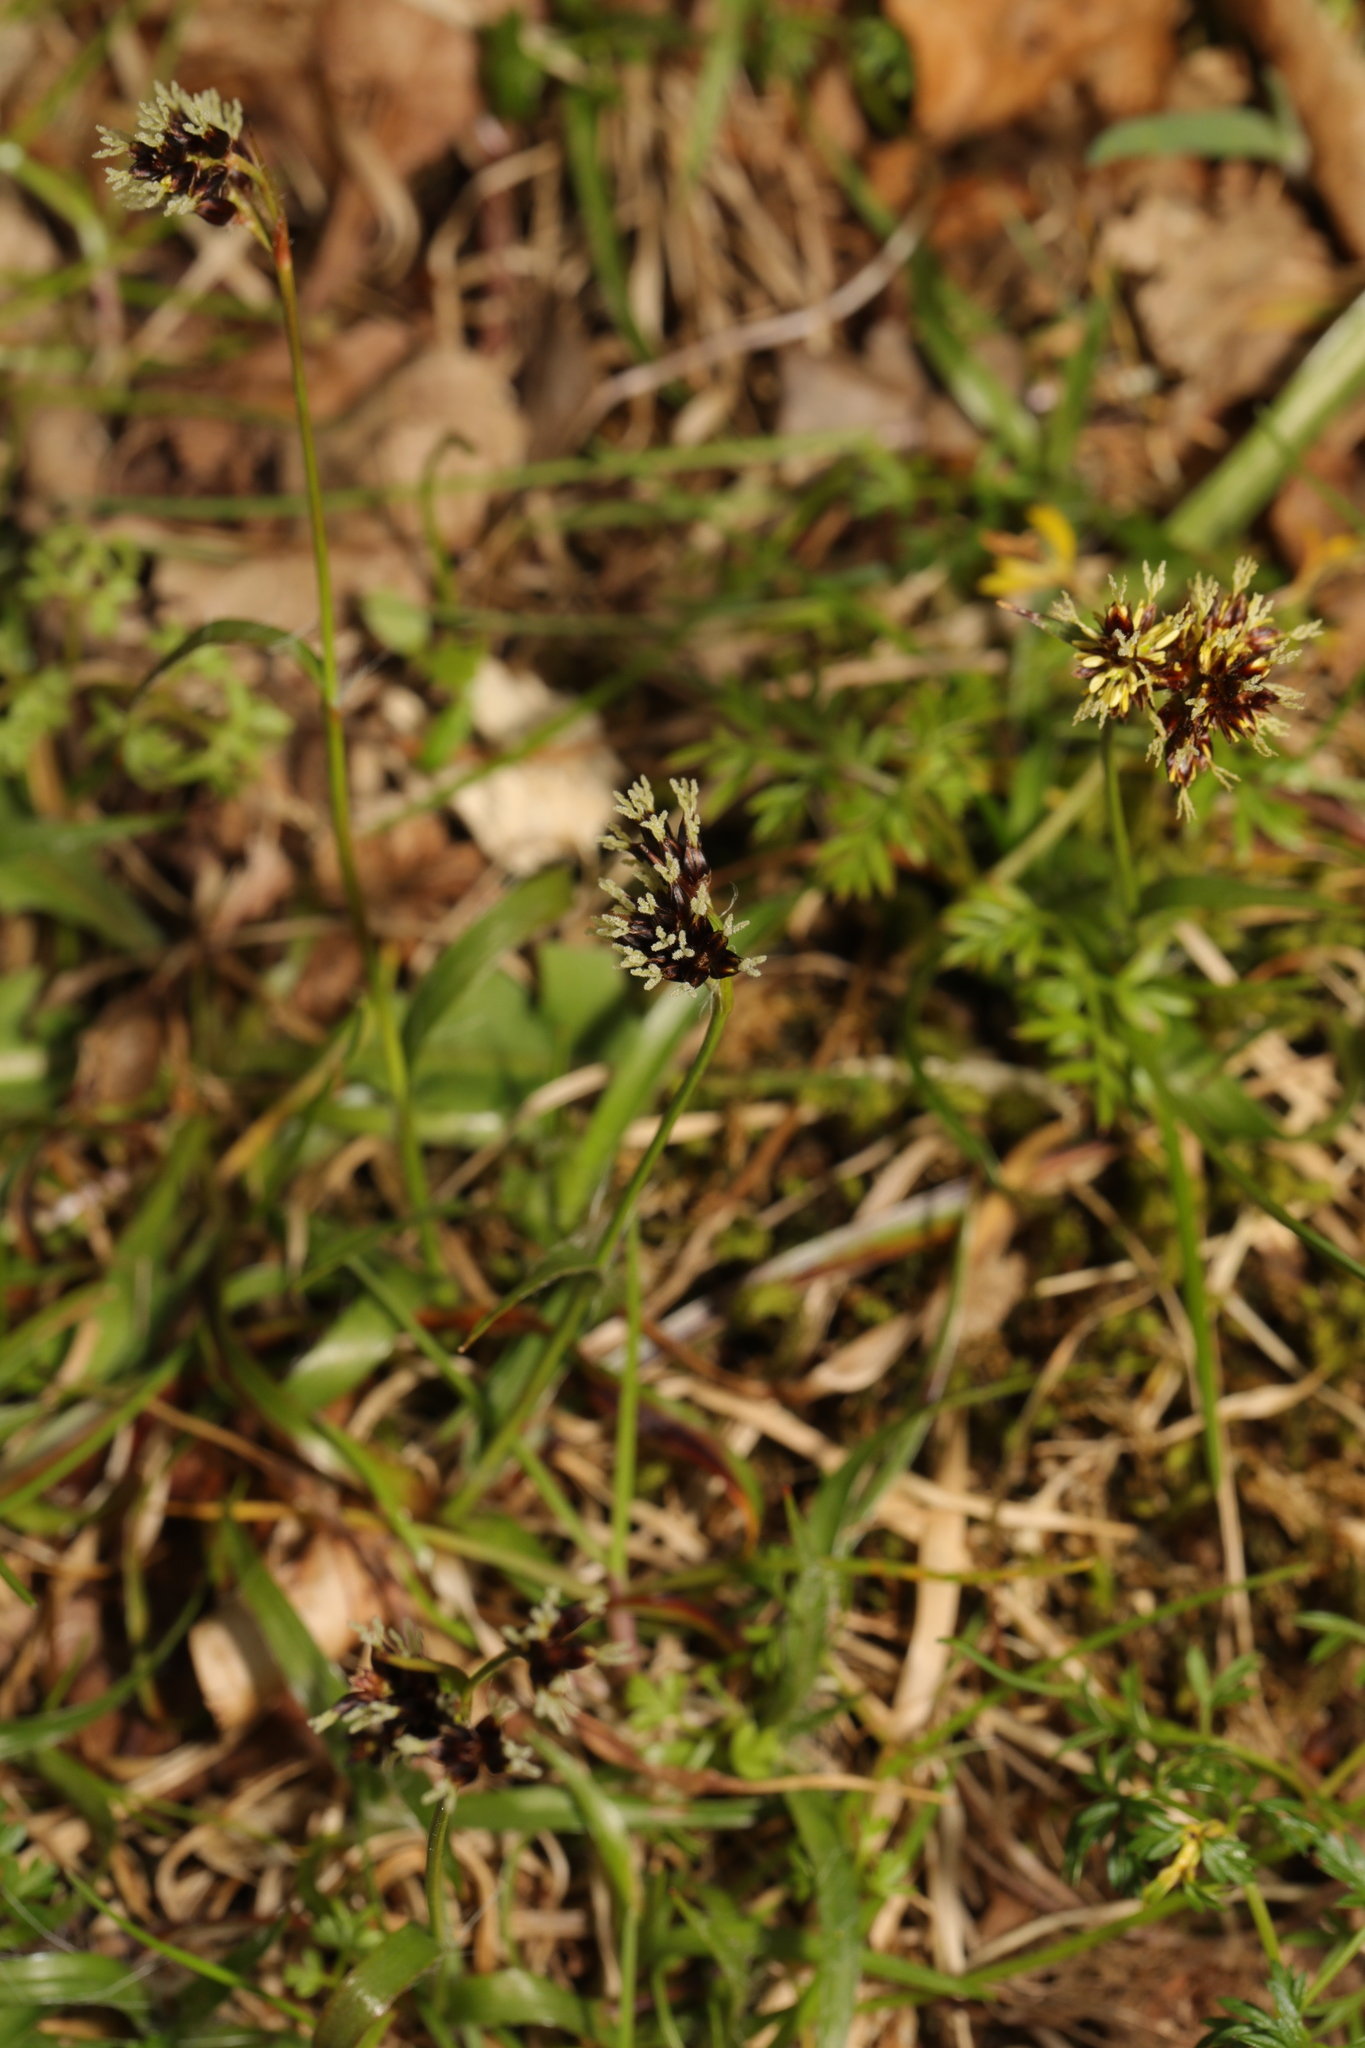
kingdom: Plantae
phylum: Tracheophyta
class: Liliopsida
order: Poales
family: Juncaceae
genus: Luzula
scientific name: Luzula campestris
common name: Field wood-rush
